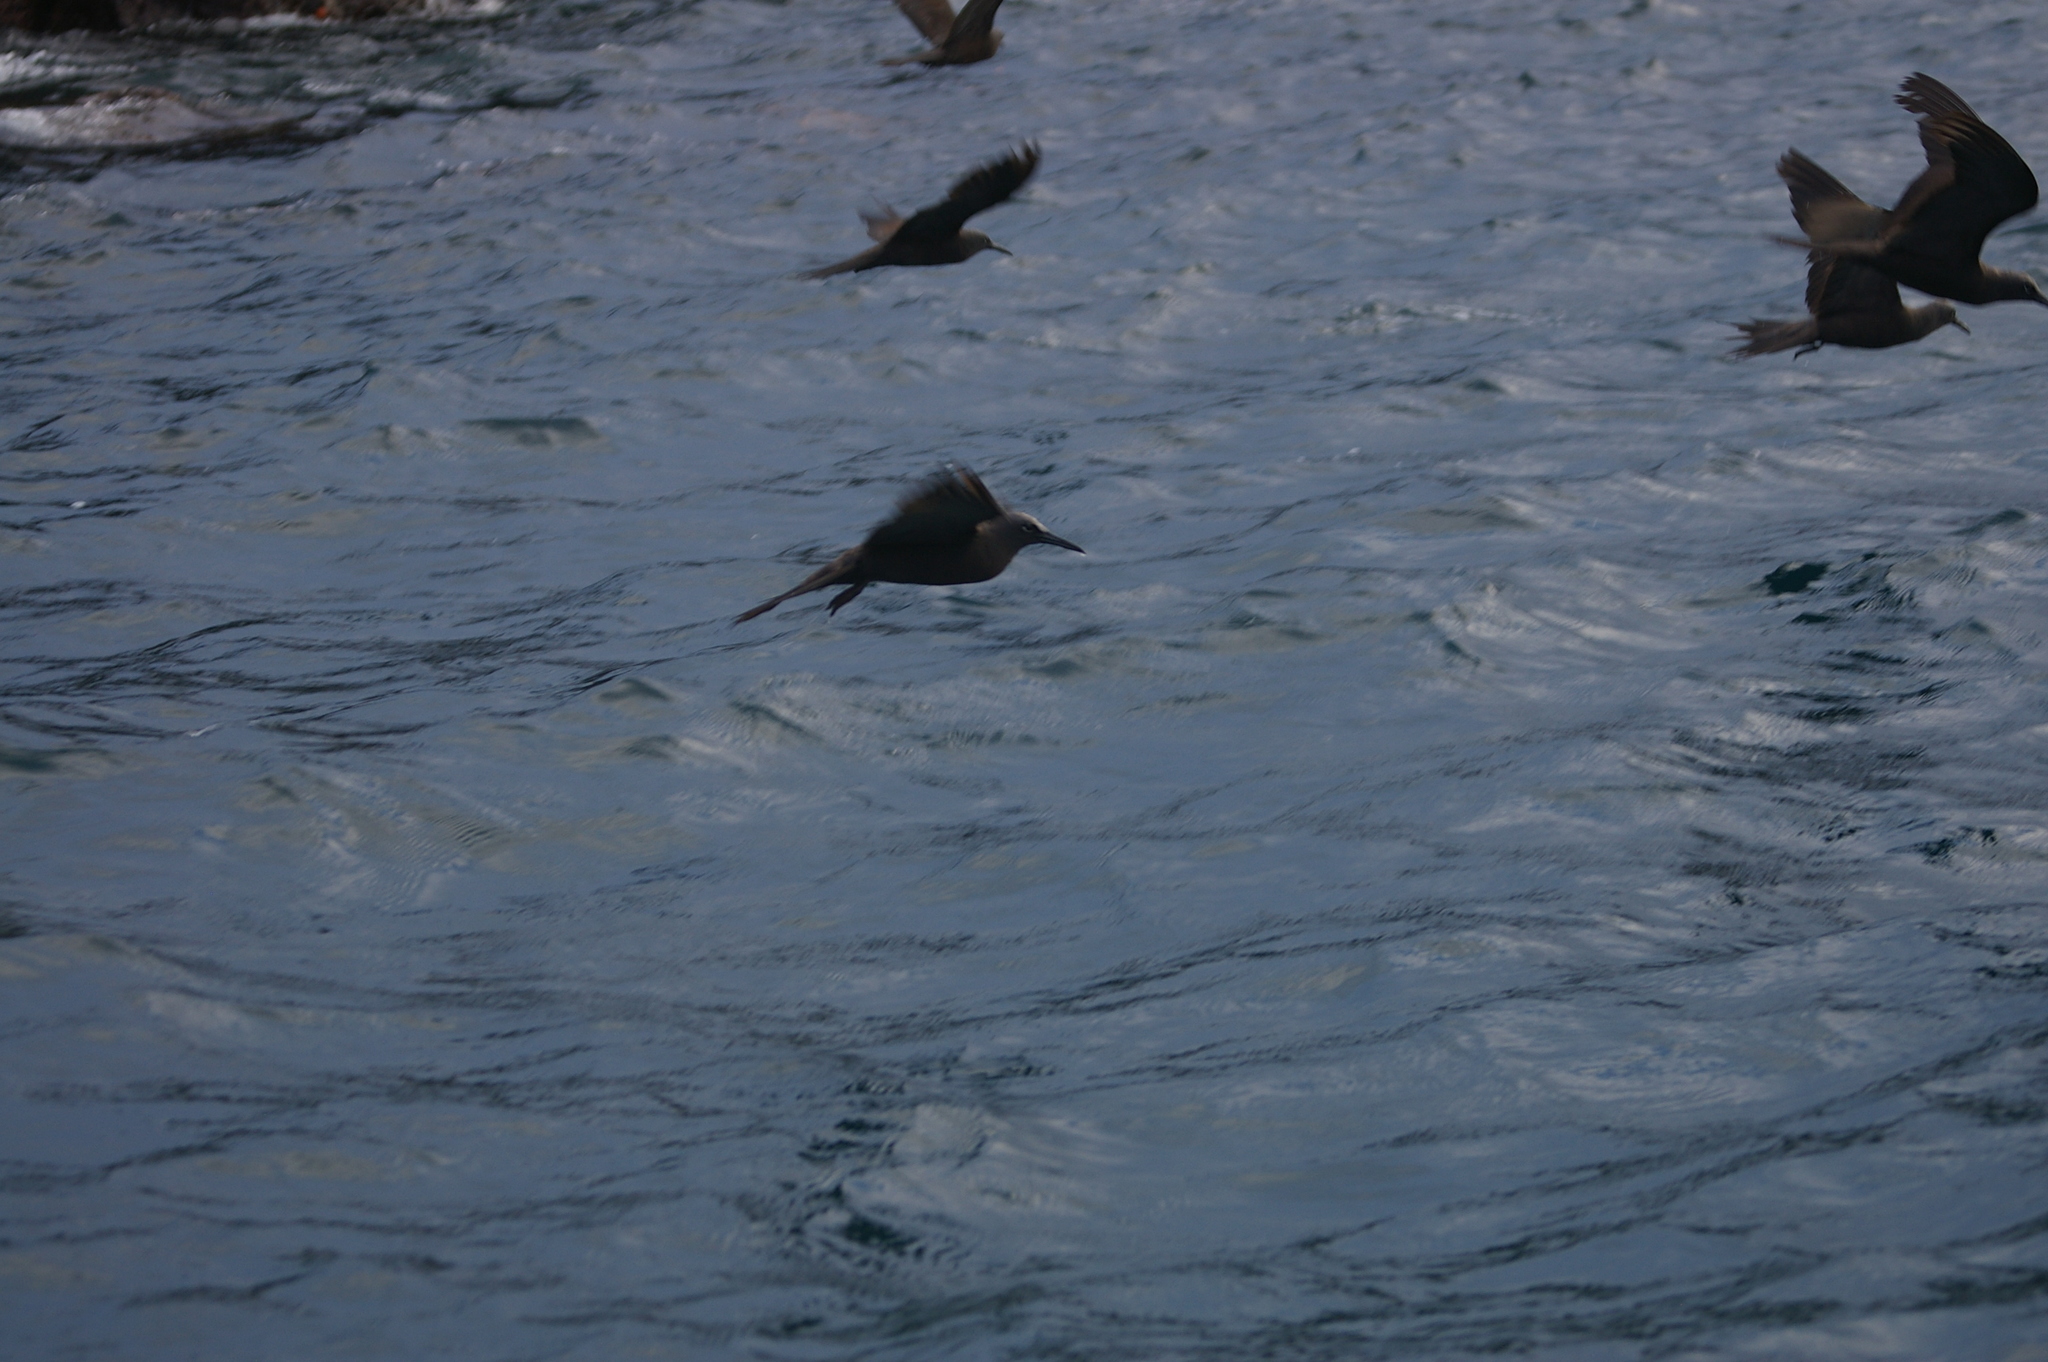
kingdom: Animalia
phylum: Chordata
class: Aves
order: Charadriiformes
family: Laridae
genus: Anous
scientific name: Anous stolidus
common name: Brown noddy
